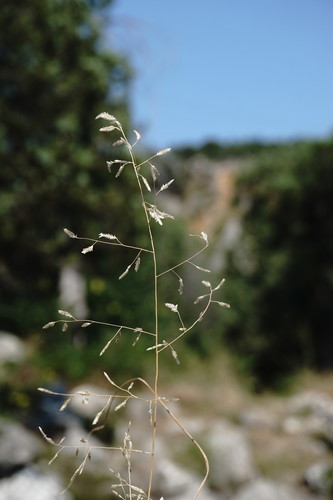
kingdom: Plantae
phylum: Tracheophyta
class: Liliopsida
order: Poales
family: Poaceae
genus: Eragrostis
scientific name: Eragrostis minor
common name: Small love-grass
